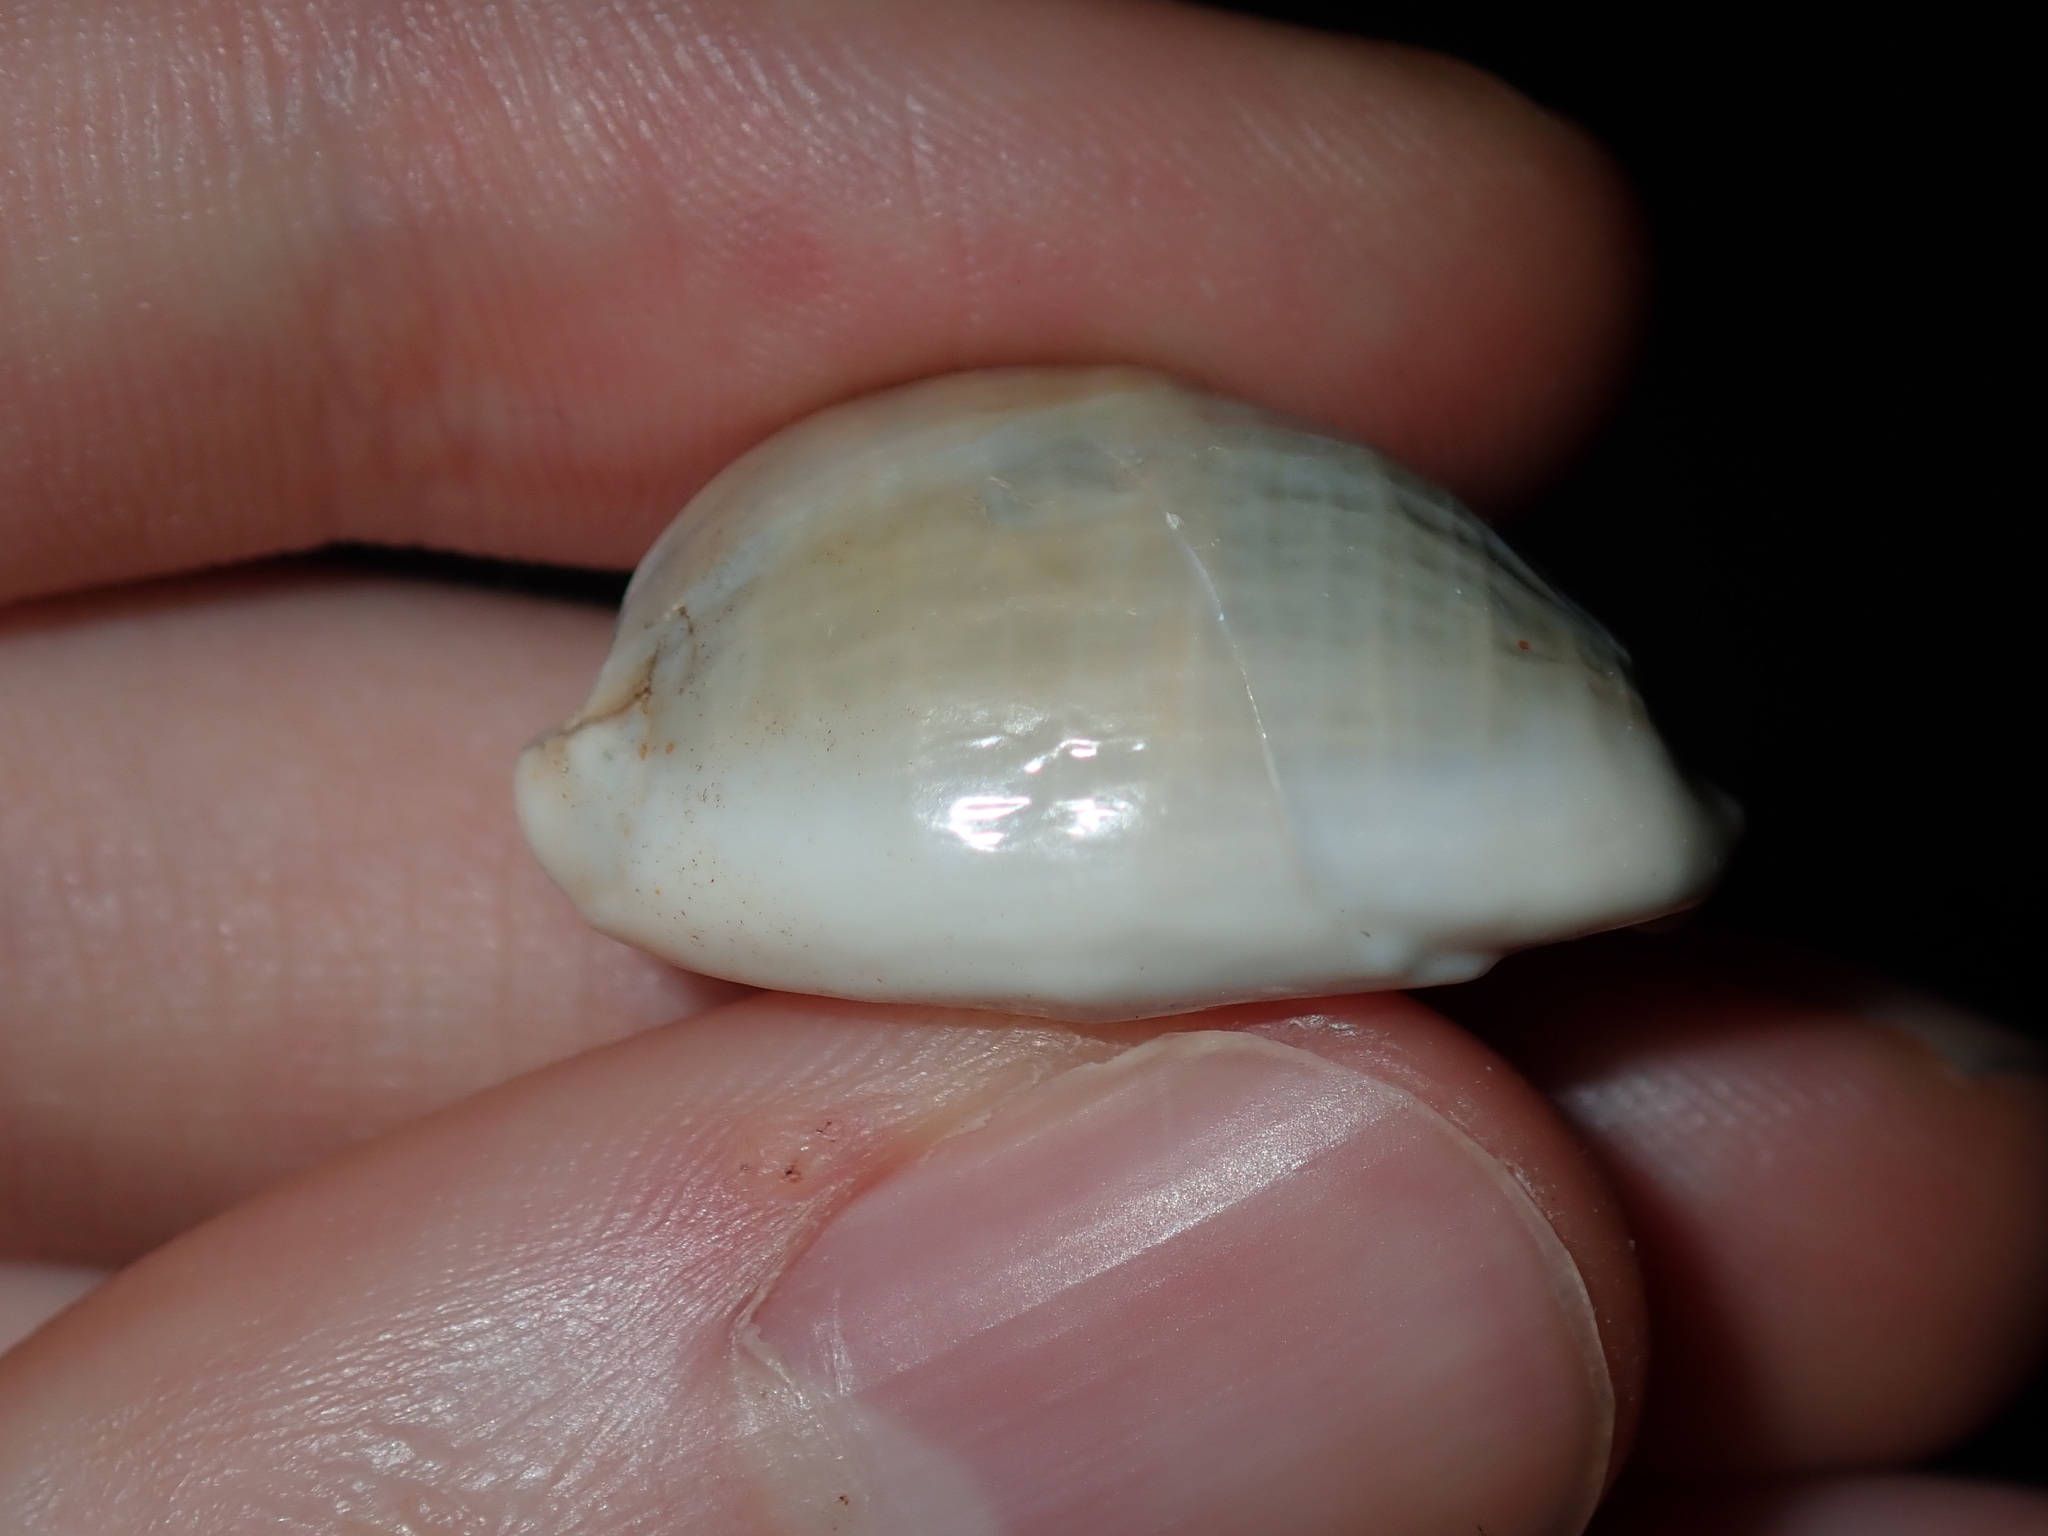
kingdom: Animalia
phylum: Mollusca
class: Gastropoda
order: Littorinimorpha
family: Cypraeidae
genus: Monetaria
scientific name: Monetaria annulus
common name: Ring cowrie
